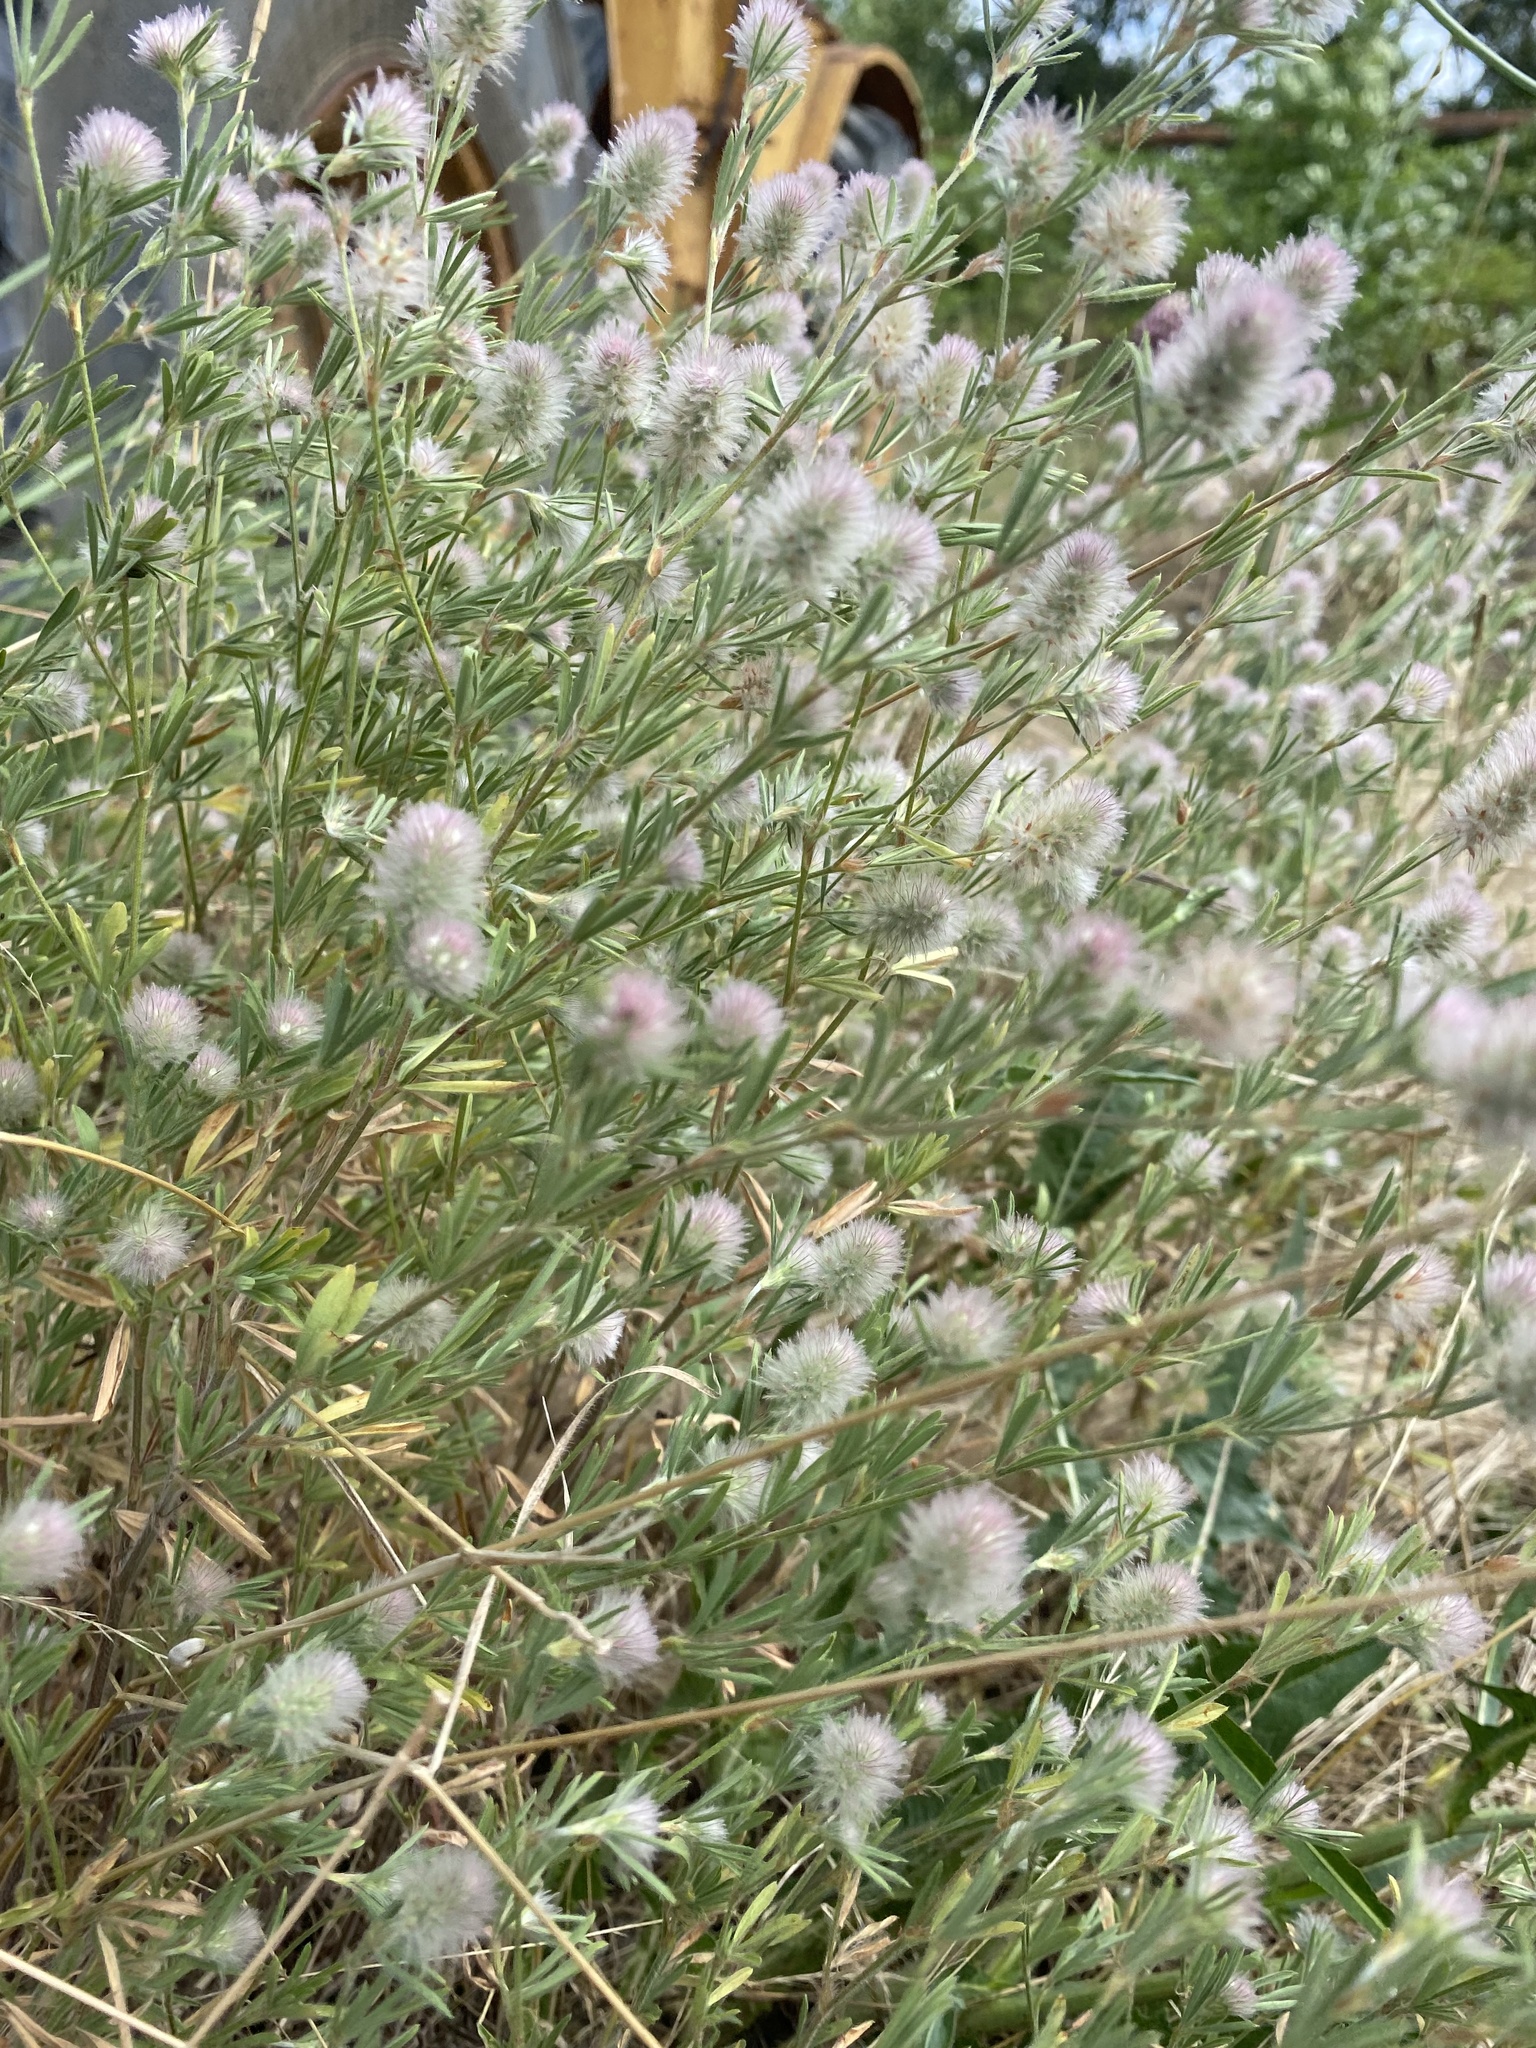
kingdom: Plantae
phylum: Tracheophyta
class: Magnoliopsida
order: Fabales
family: Fabaceae
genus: Trifolium
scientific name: Trifolium arvense
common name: Hare's-foot clover
